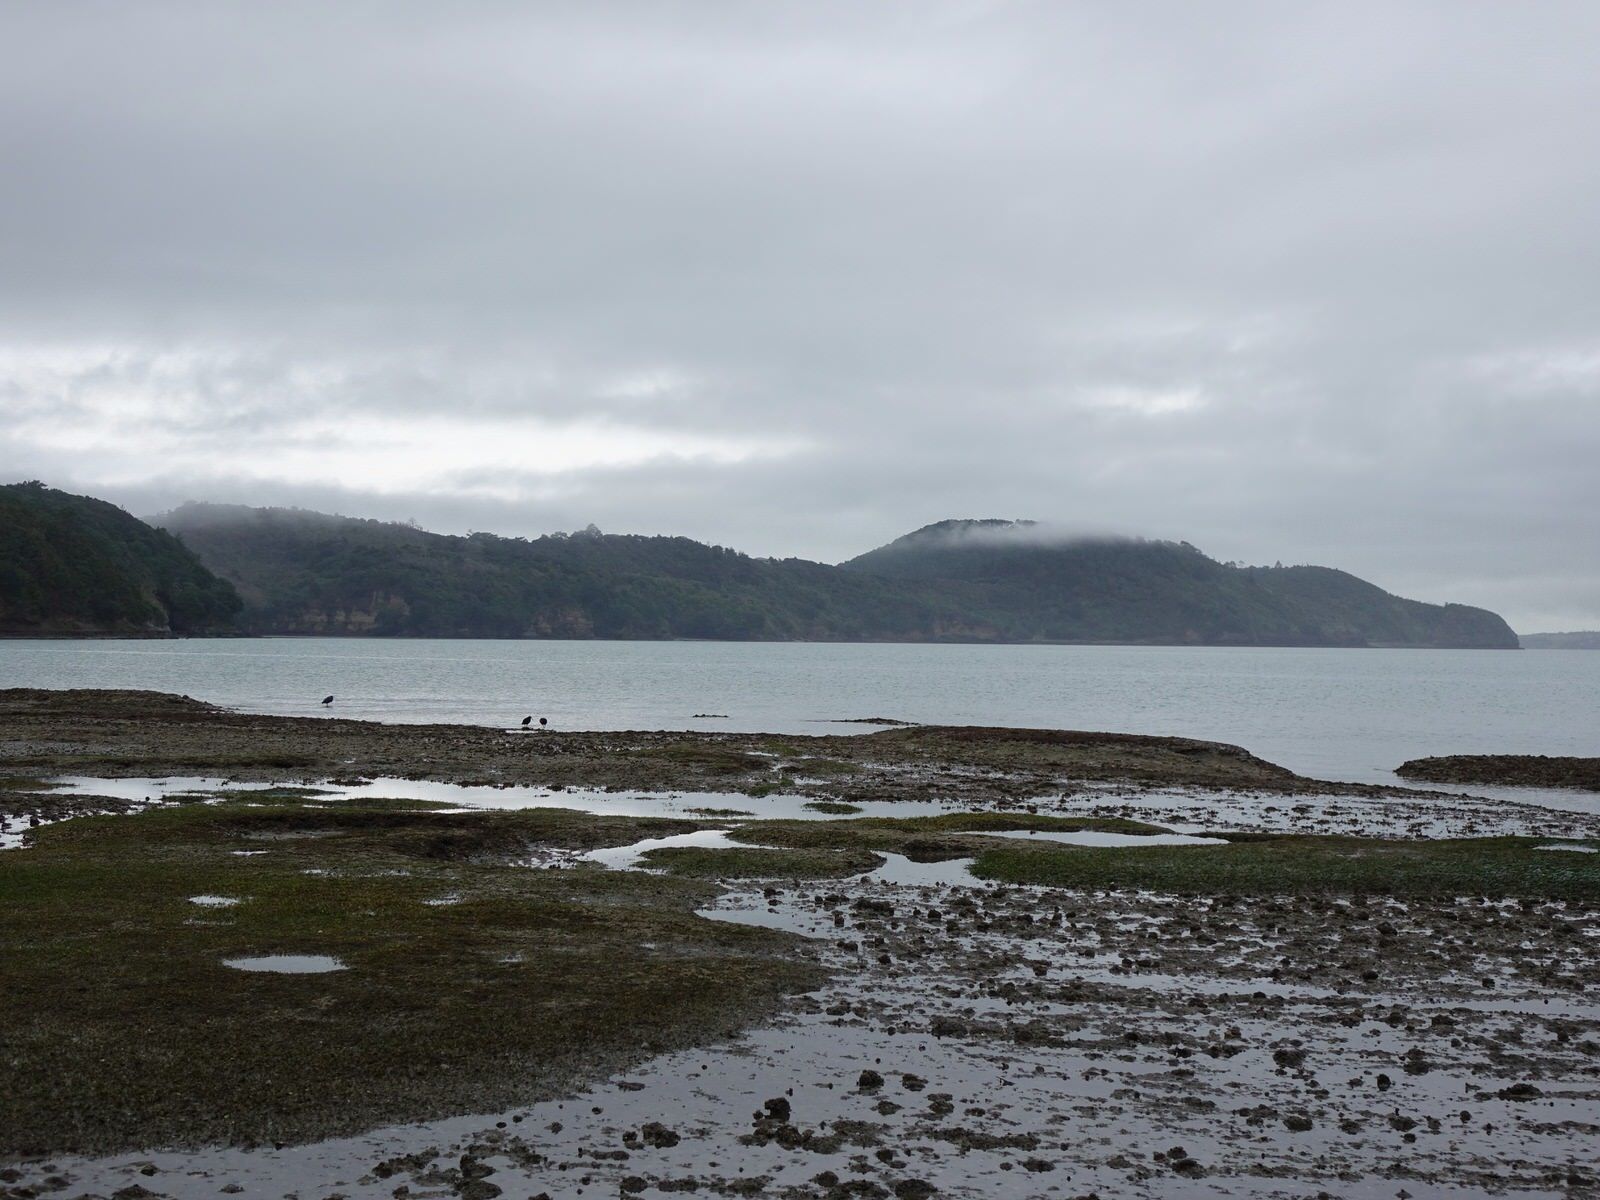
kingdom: Animalia
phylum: Chordata
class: Aves
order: Pelecaniformes
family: Ardeidae
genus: Egretta
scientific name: Egretta sacra
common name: Pacific reef heron
